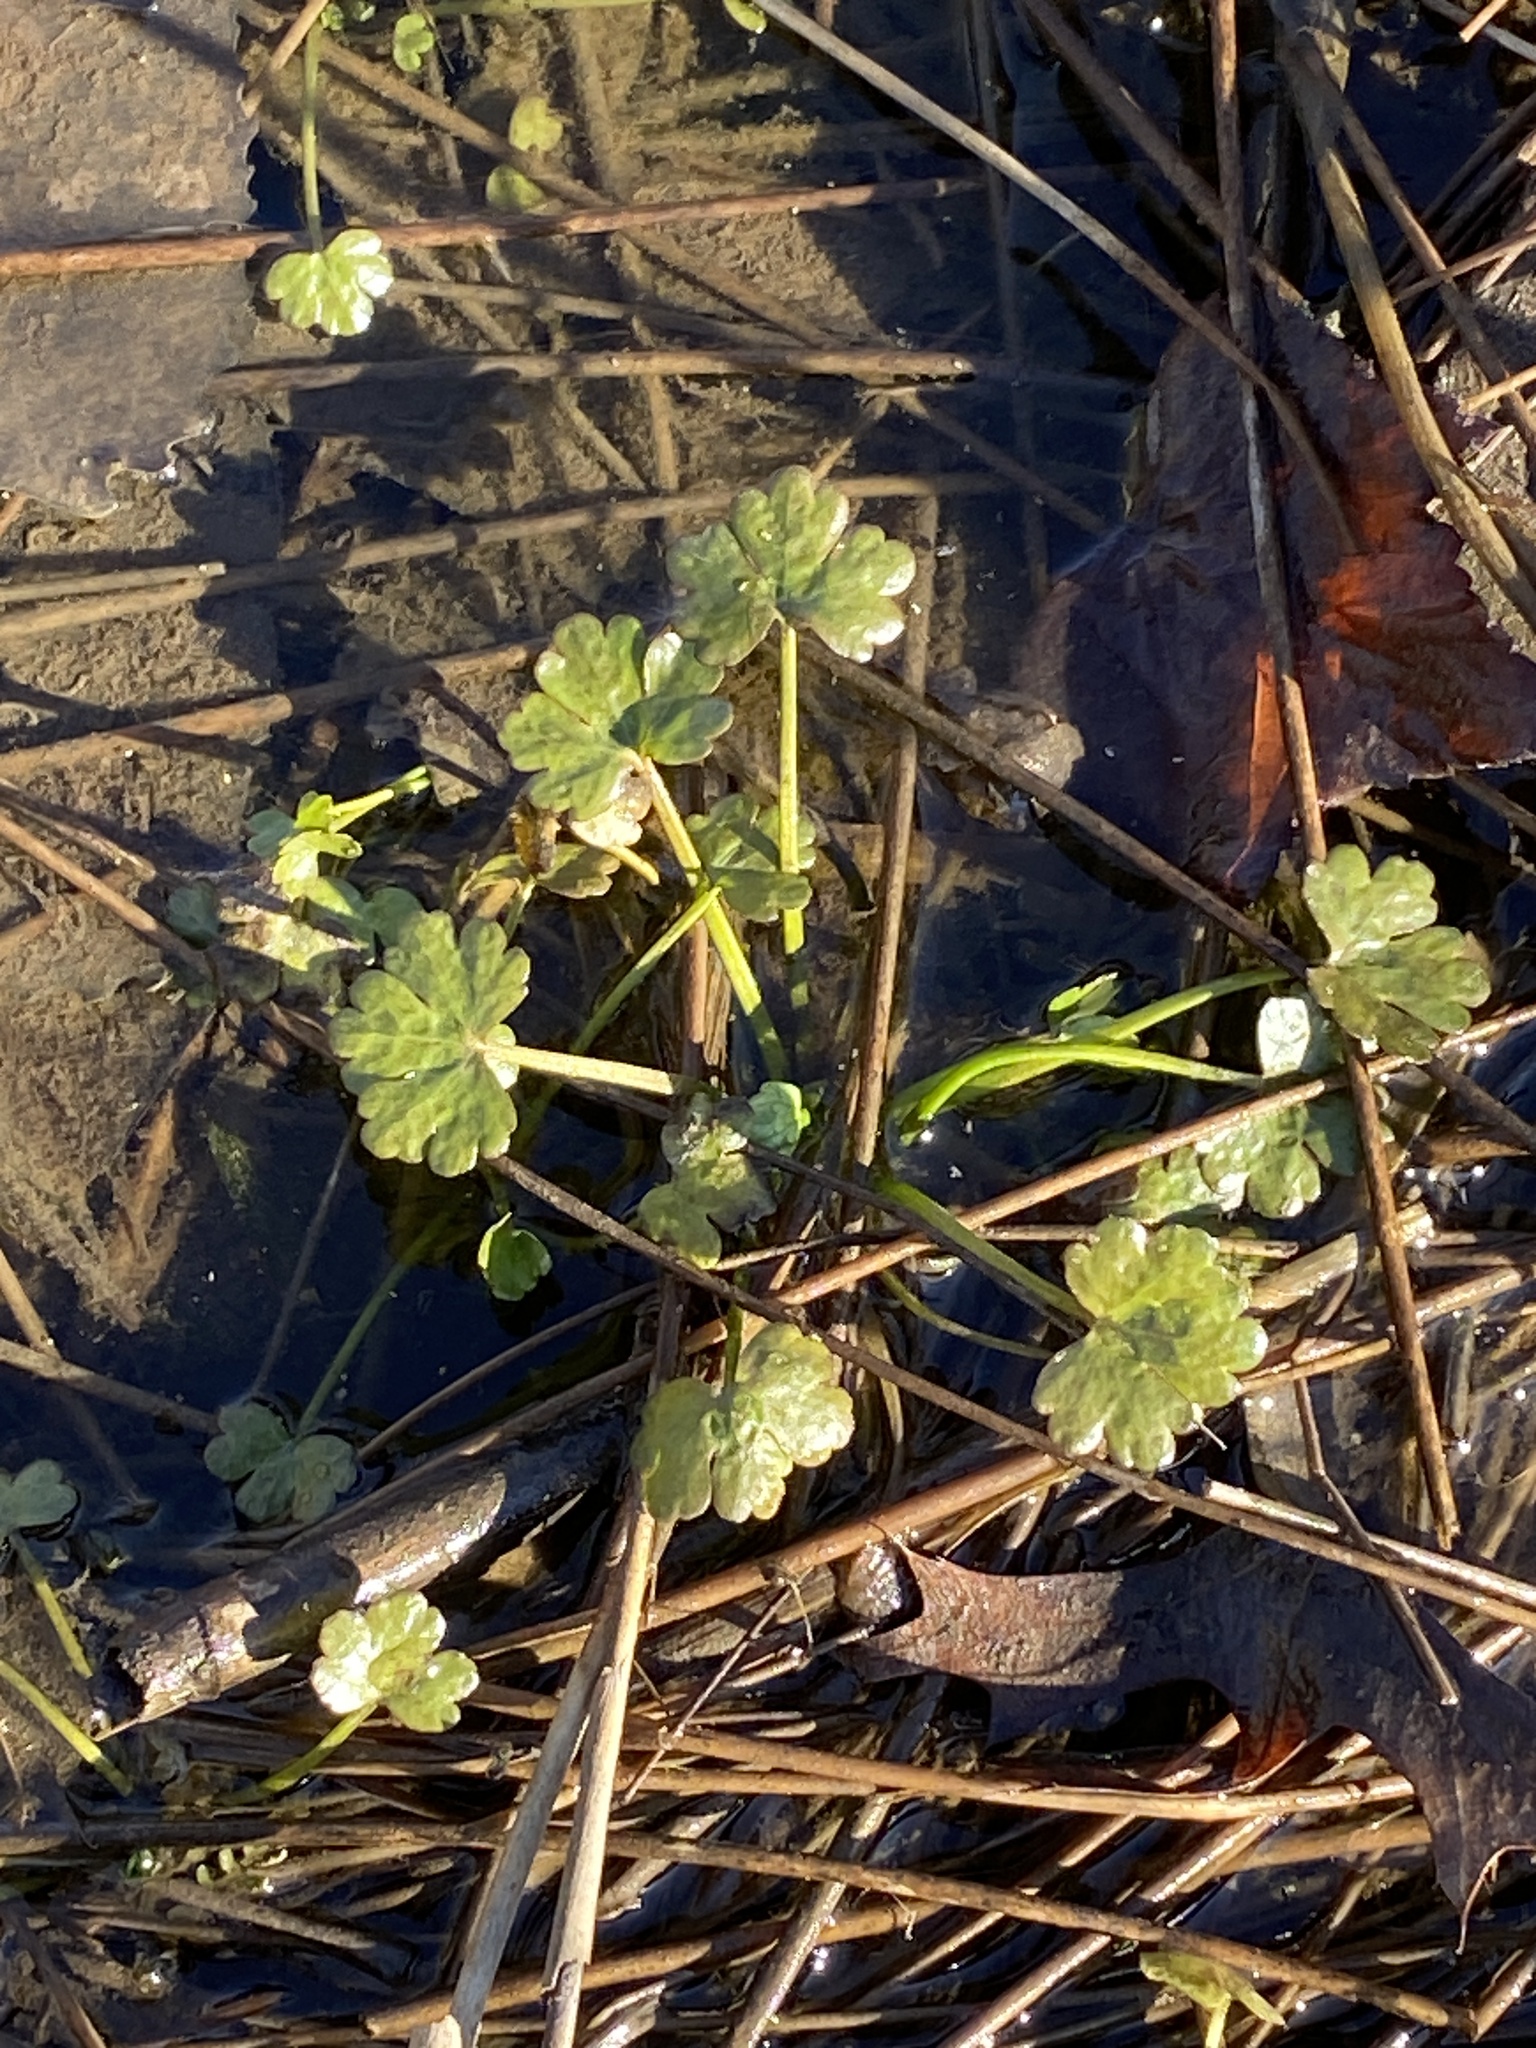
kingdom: Plantae
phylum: Tracheophyta
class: Magnoliopsida
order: Ranunculales
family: Ranunculaceae
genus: Ranunculus
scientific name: Ranunculus sceleratus
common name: Celery-leaved buttercup
